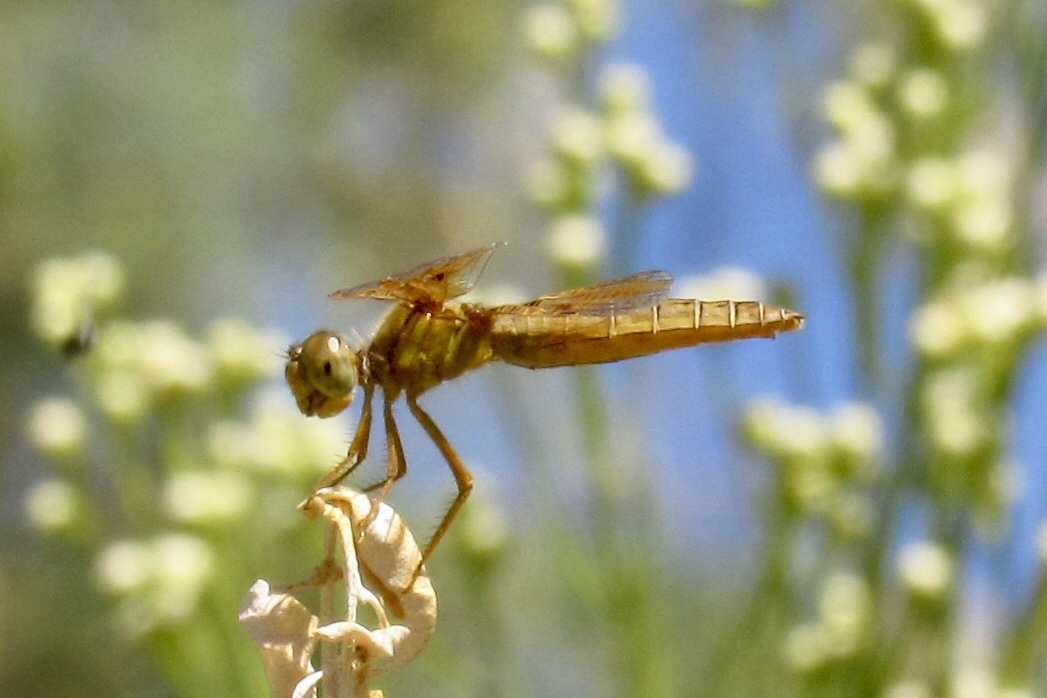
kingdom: Animalia
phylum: Arthropoda
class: Insecta
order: Odonata
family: Libellulidae
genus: Perithemis
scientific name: Perithemis intensa
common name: Mexican amberwing
